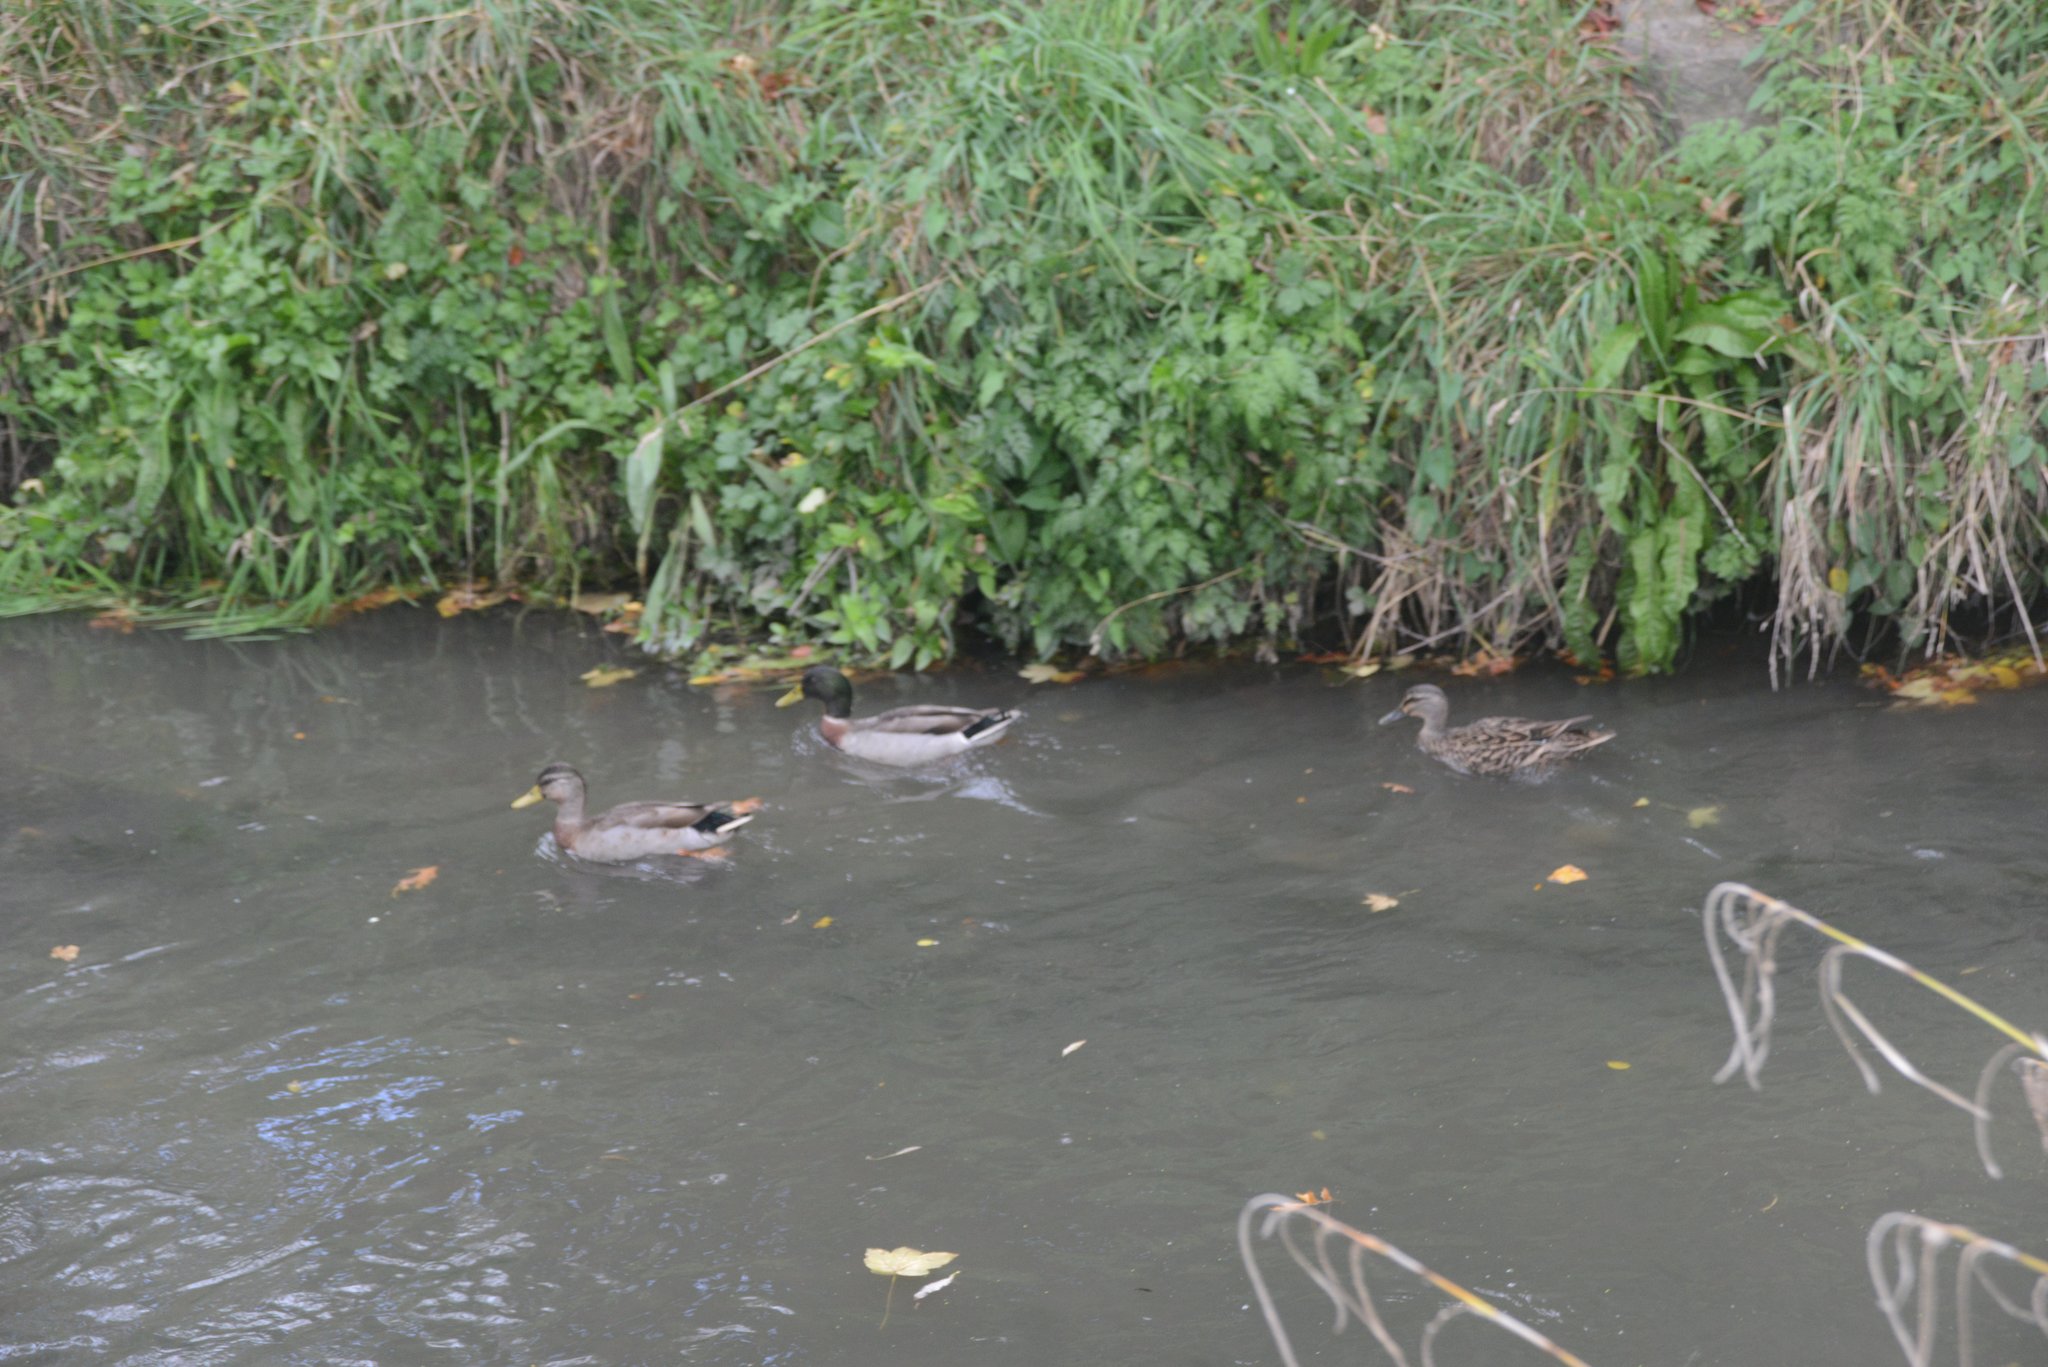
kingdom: Animalia
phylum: Chordata
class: Aves
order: Anseriformes
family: Anatidae
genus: Anas
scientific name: Anas platyrhynchos
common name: Mallard
